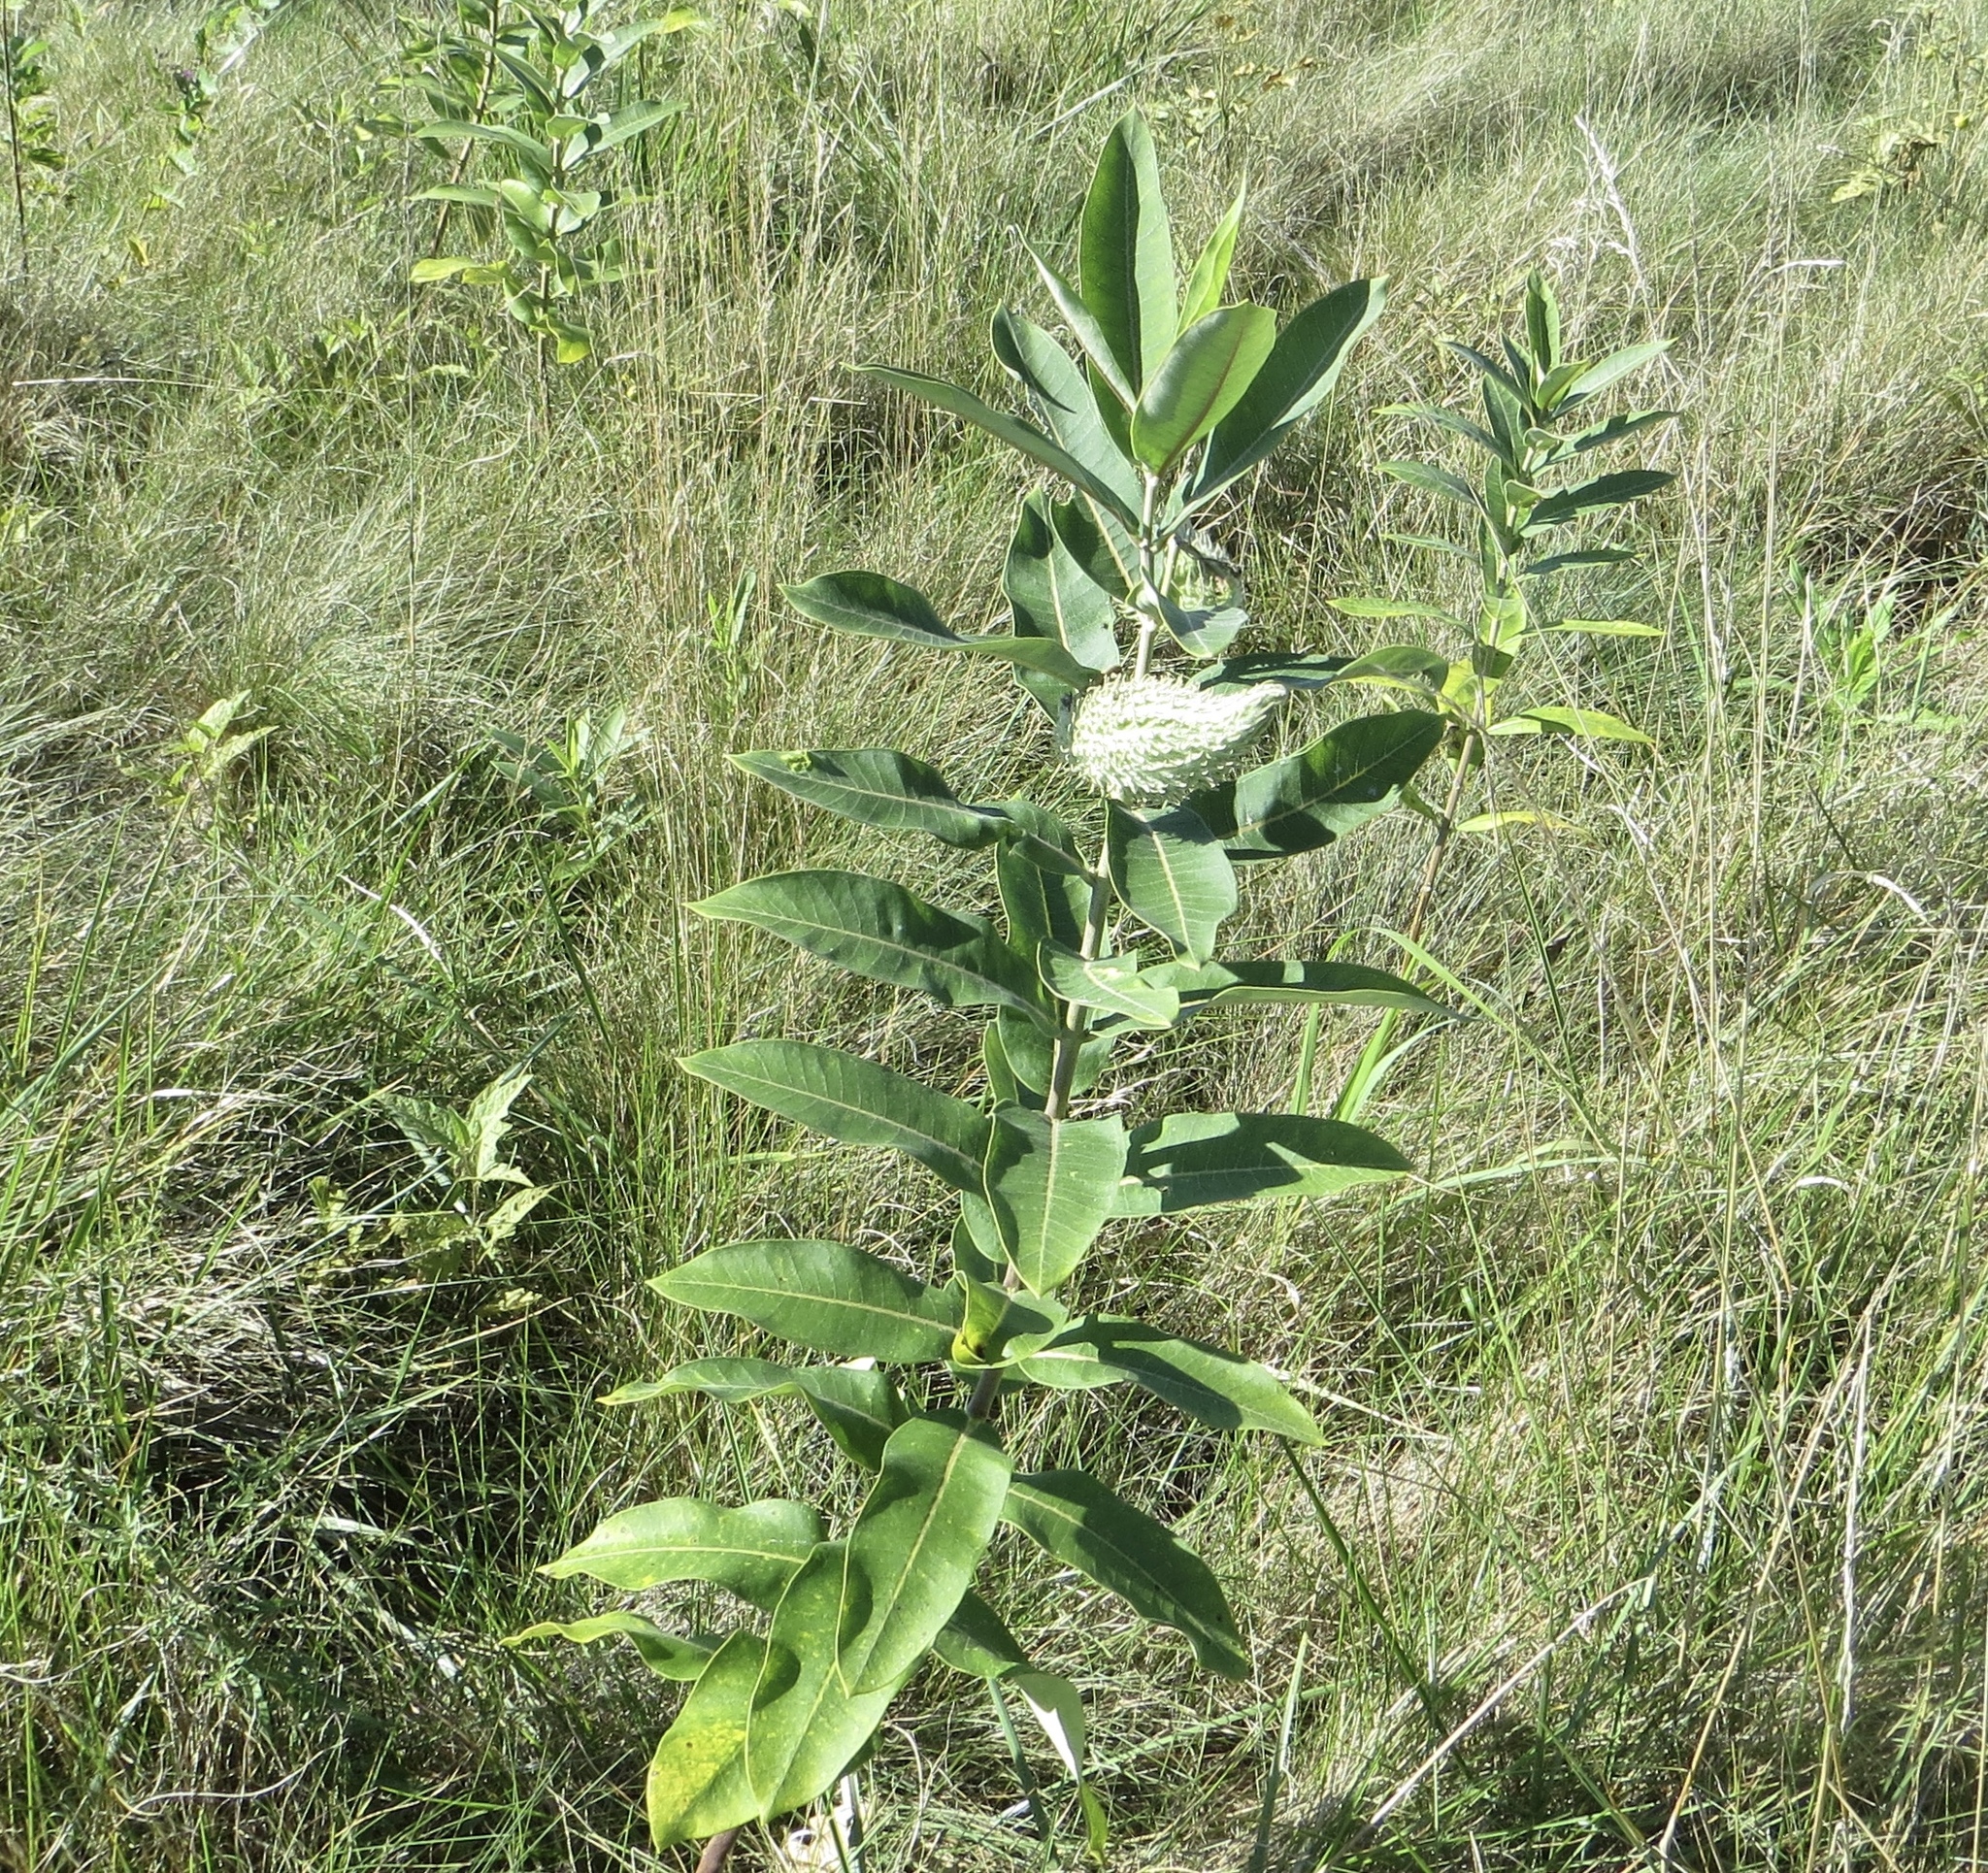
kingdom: Plantae
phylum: Tracheophyta
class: Magnoliopsida
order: Gentianales
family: Apocynaceae
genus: Asclepias
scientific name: Asclepias syriaca
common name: Common milkweed
